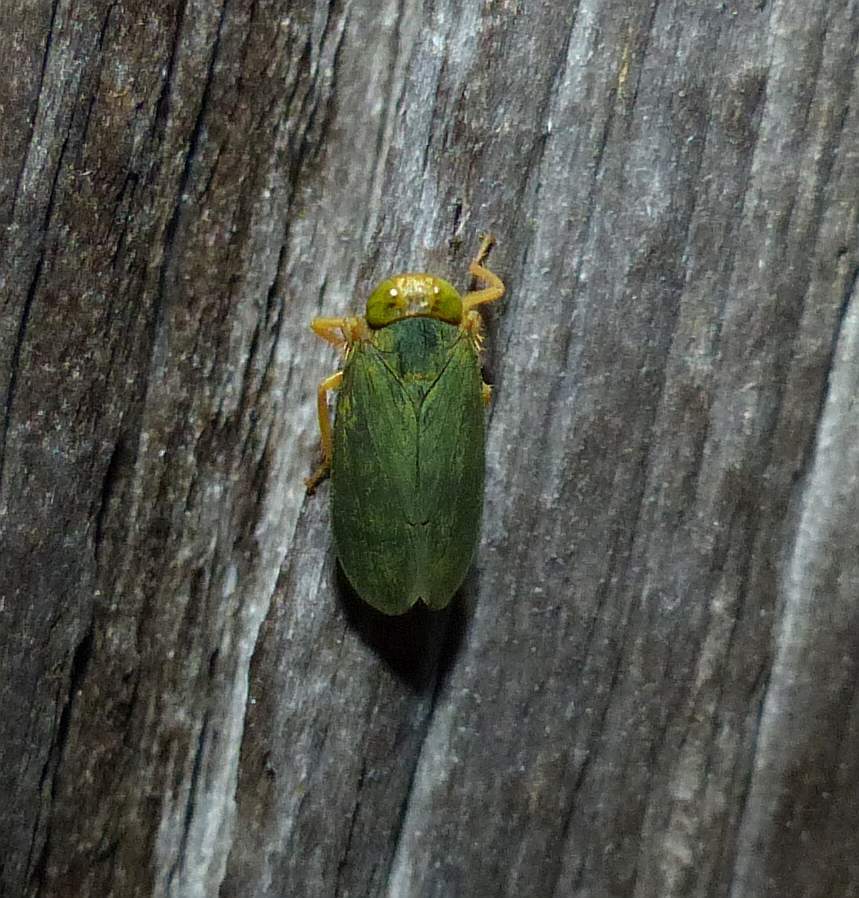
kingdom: Animalia
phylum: Arthropoda
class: Insecta
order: Hemiptera
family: Cicadellidae
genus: Jikradia
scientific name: Jikradia olitoria
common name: Coppery leafhopper
